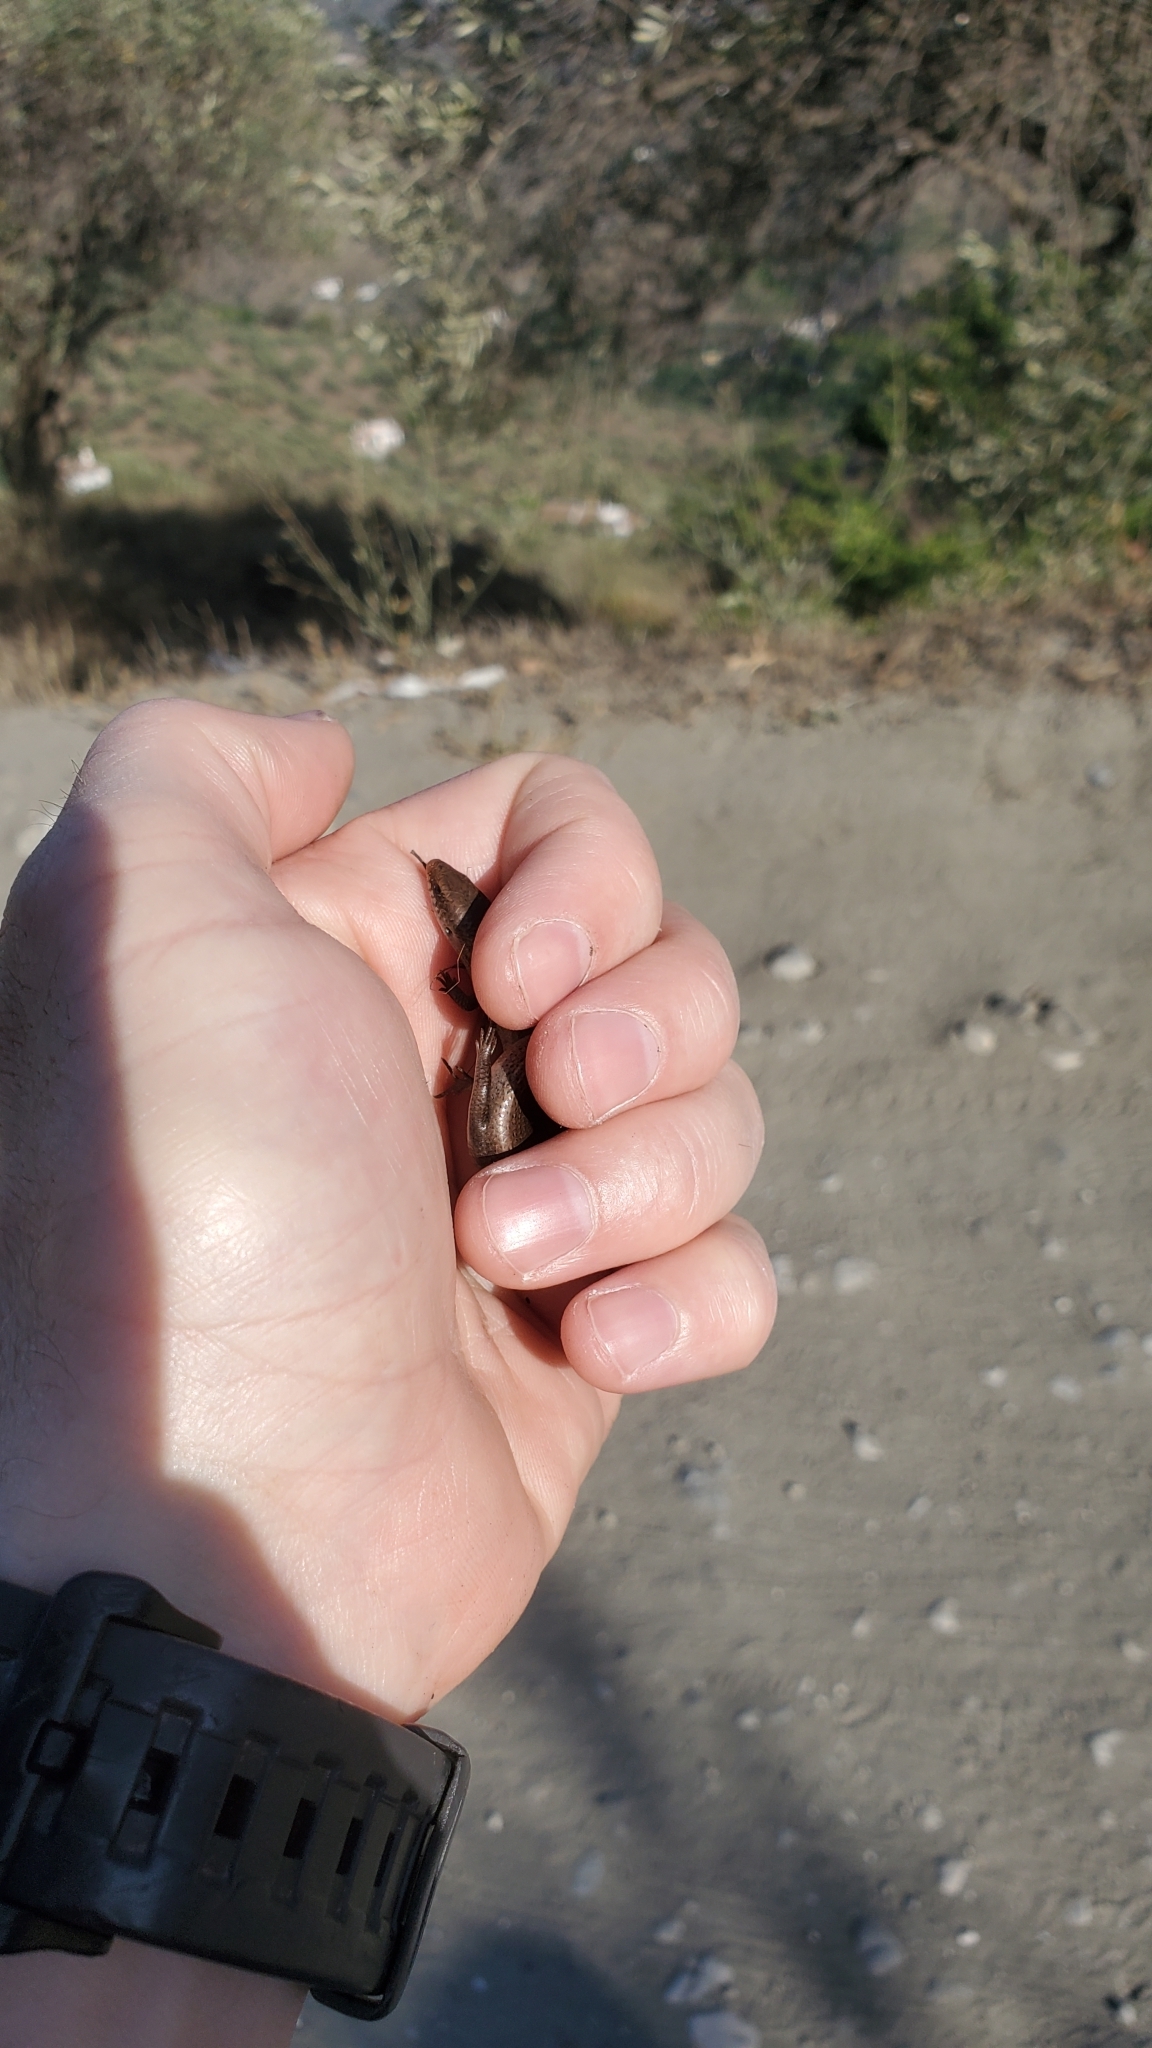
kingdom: Animalia
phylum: Chordata
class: Squamata
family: Scincidae
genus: Chalcides
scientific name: Chalcides bedriagai
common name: Spanish cylindrical skink
